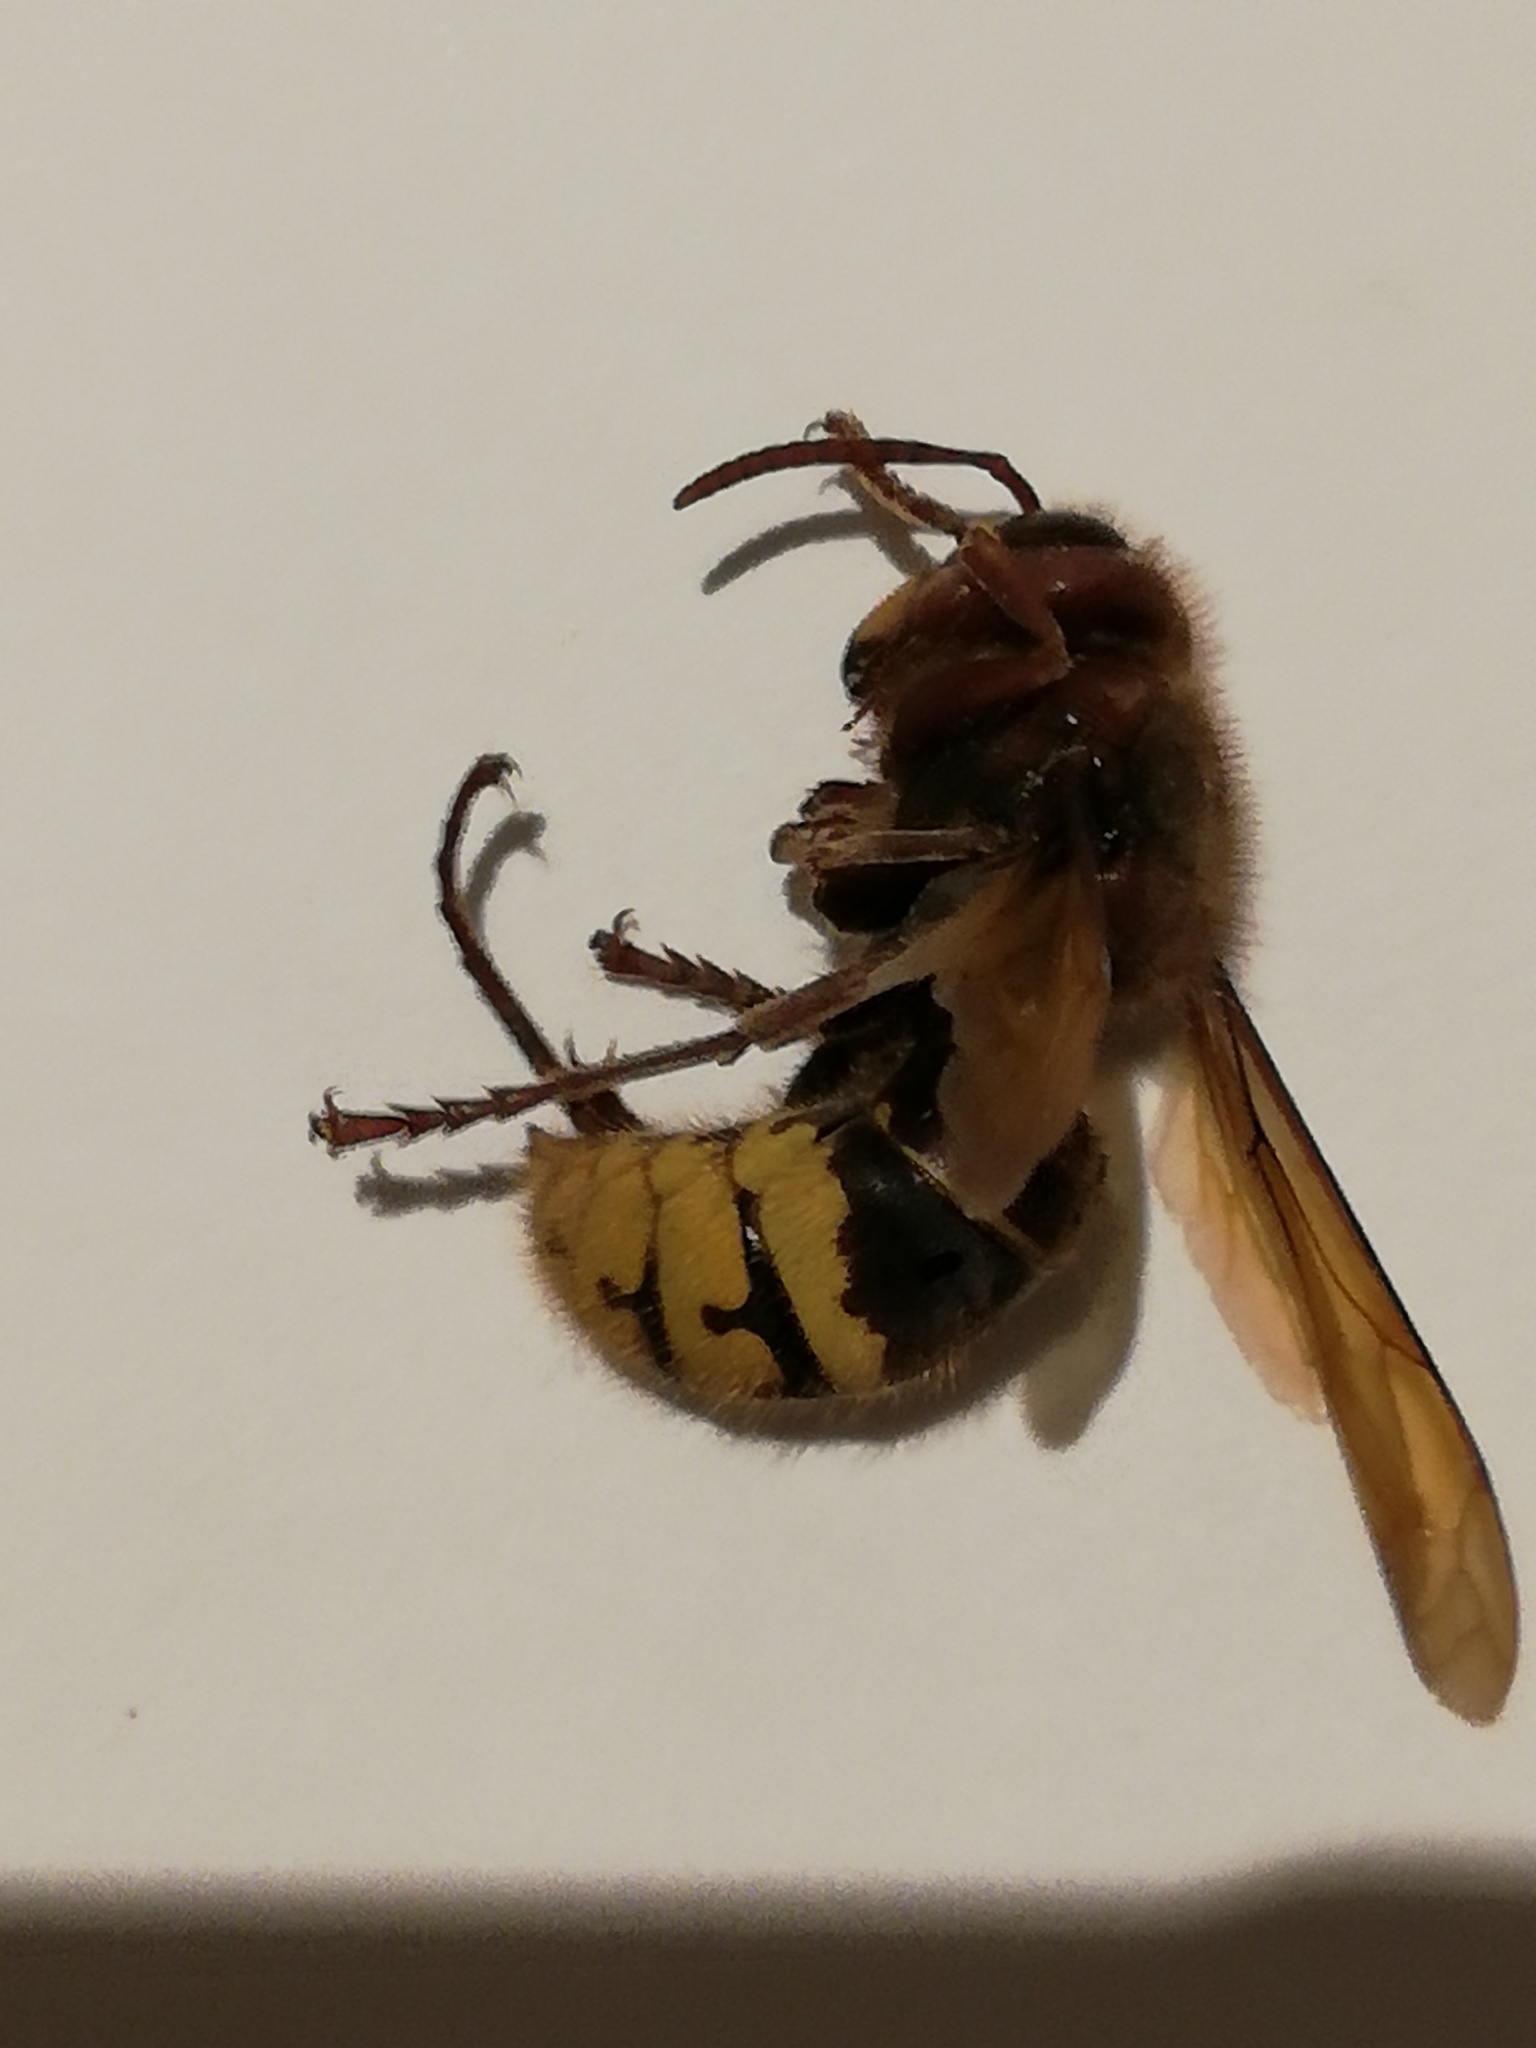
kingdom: Animalia
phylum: Arthropoda
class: Insecta
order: Hymenoptera
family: Vespidae
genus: Vespa
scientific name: Vespa crabro
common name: Hornet
